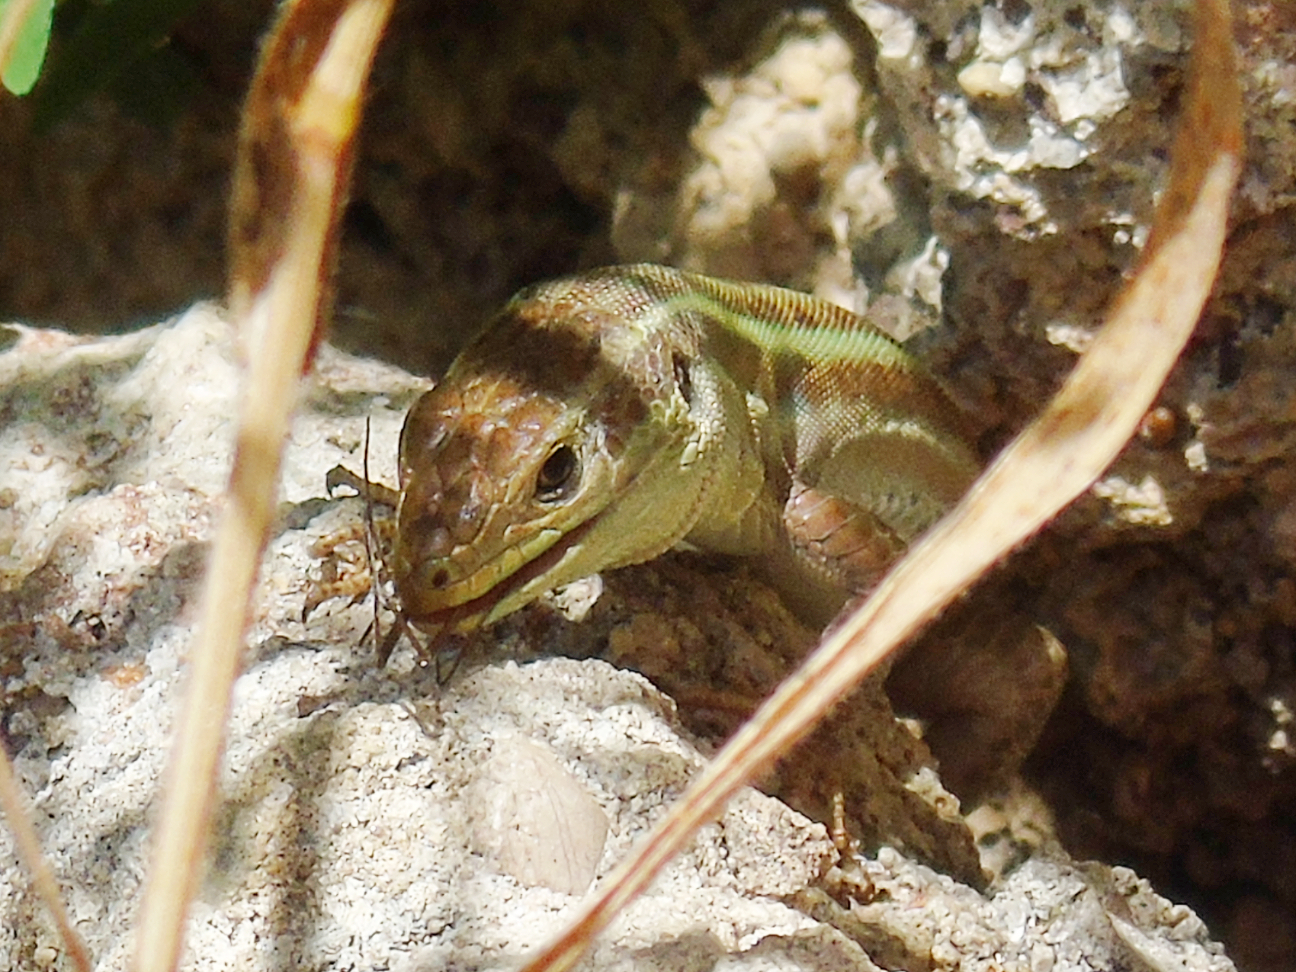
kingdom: Animalia
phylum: Chordata
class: Squamata
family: Lacertidae
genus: Podarcis
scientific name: Podarcis peloponnesiacus
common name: Peloponnese wall lizard
